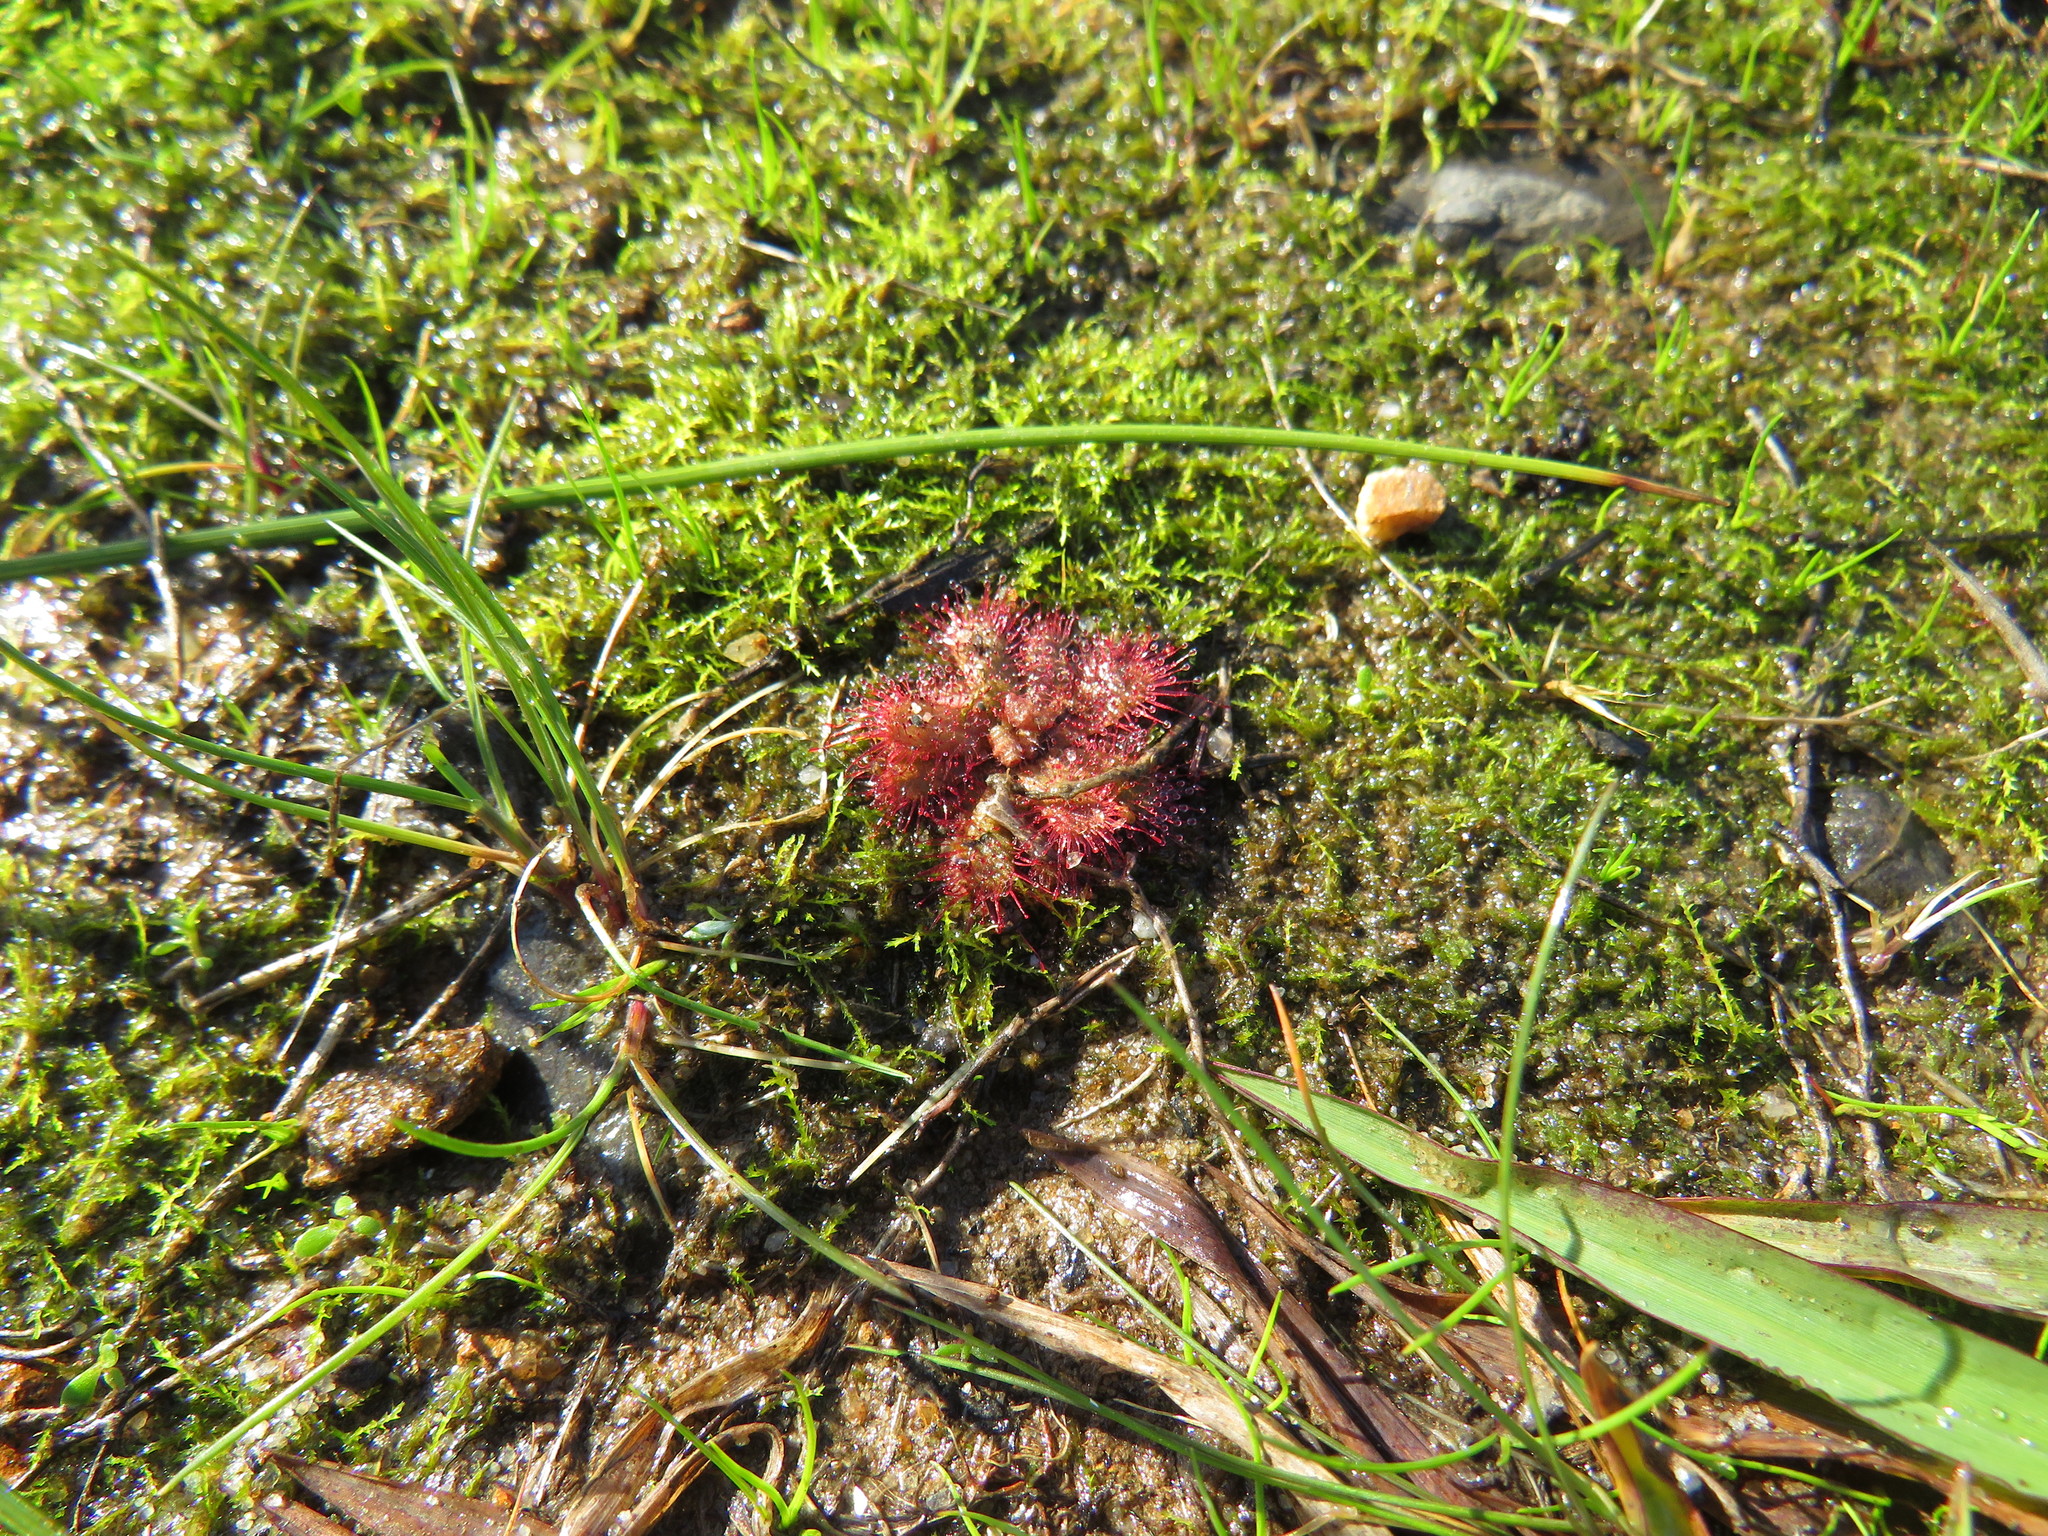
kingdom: Plantae
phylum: Tracheophyta
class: Magnoliopsida
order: Caryophyllales
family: Droseraceae
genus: Drosera
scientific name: Drosera trinervia
